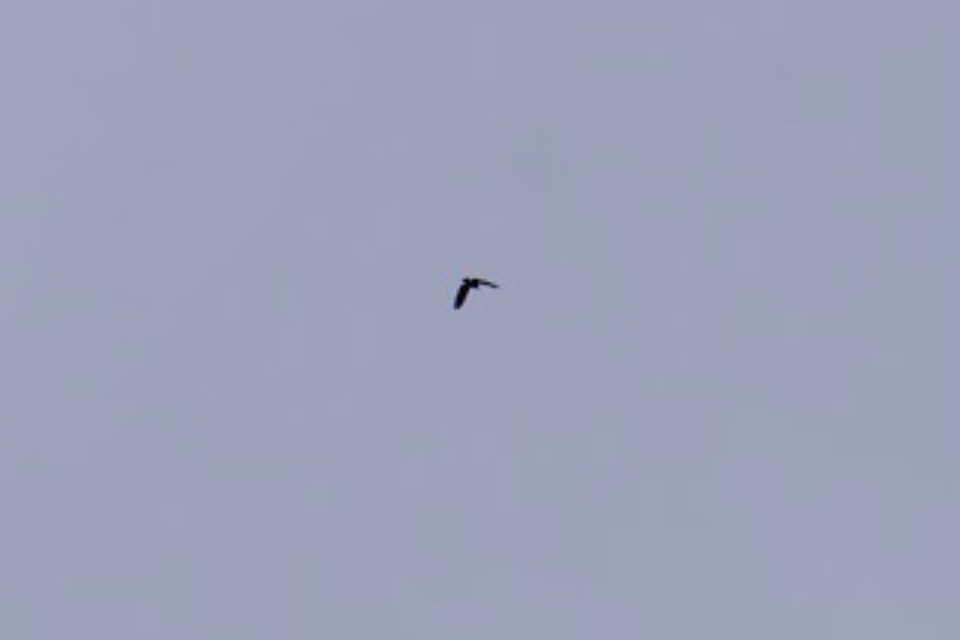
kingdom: Animalia
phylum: Chordata
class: Aves
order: Psittaciformes
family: Psittacidae
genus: Nestor
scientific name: Nestor notabilis
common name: Kea
